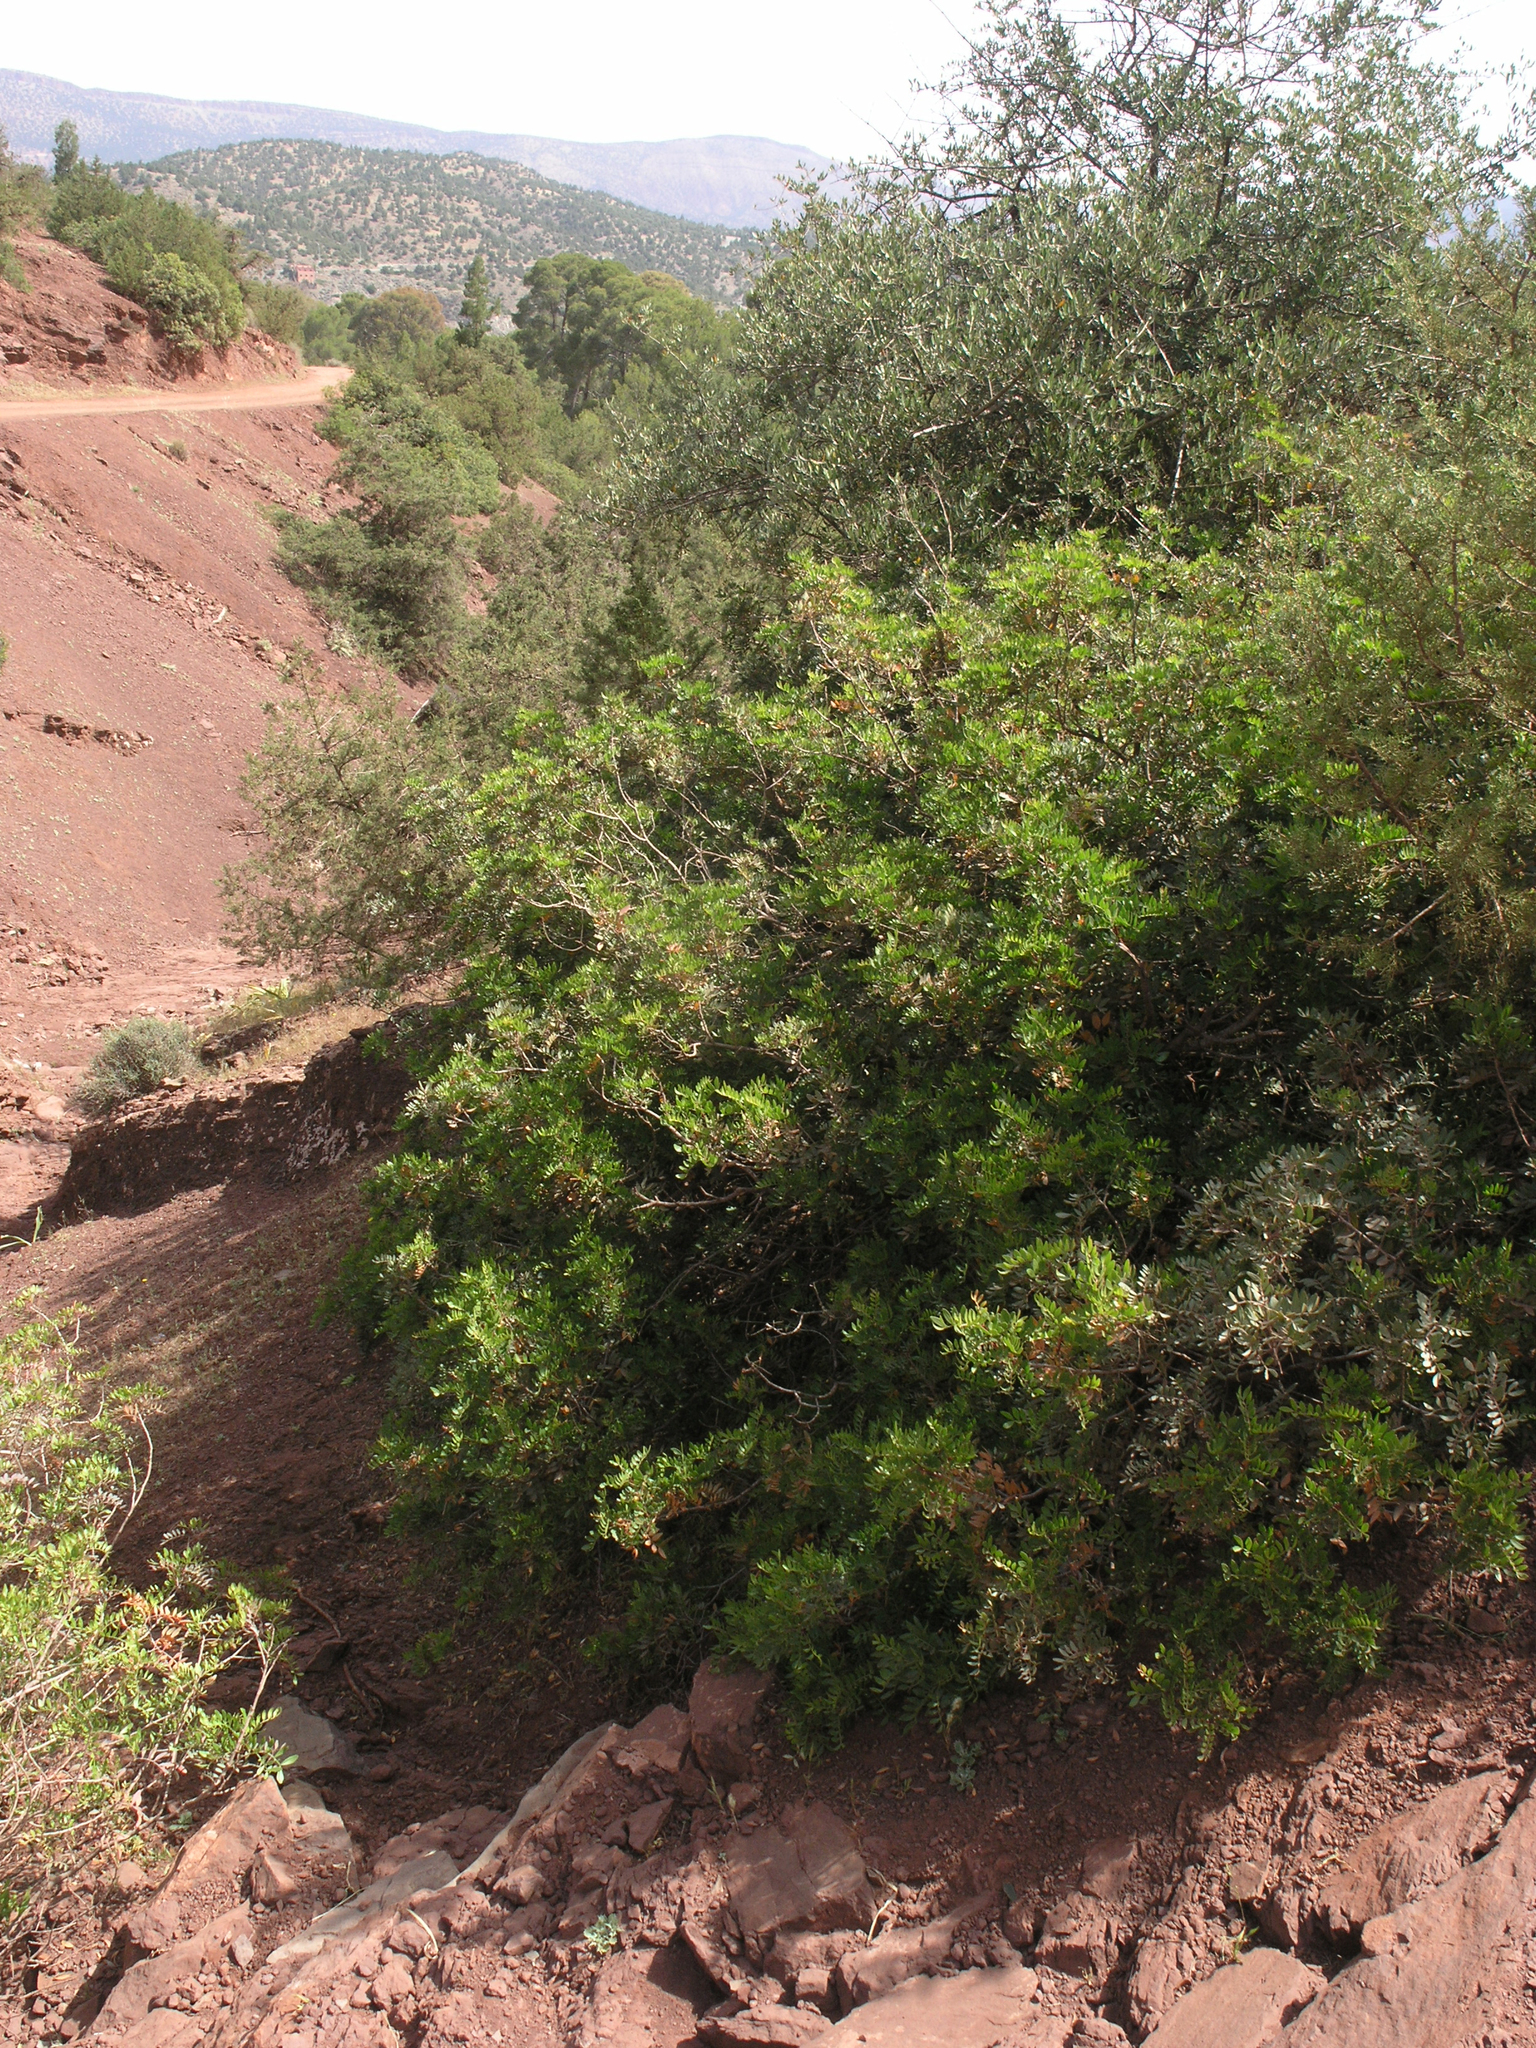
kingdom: Plantae
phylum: Tracheophyta
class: Magnoliopsida
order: Sapindales
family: Anacardiaceae
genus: Pistacia
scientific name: Pistacia lentiscus
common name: Lentisk
